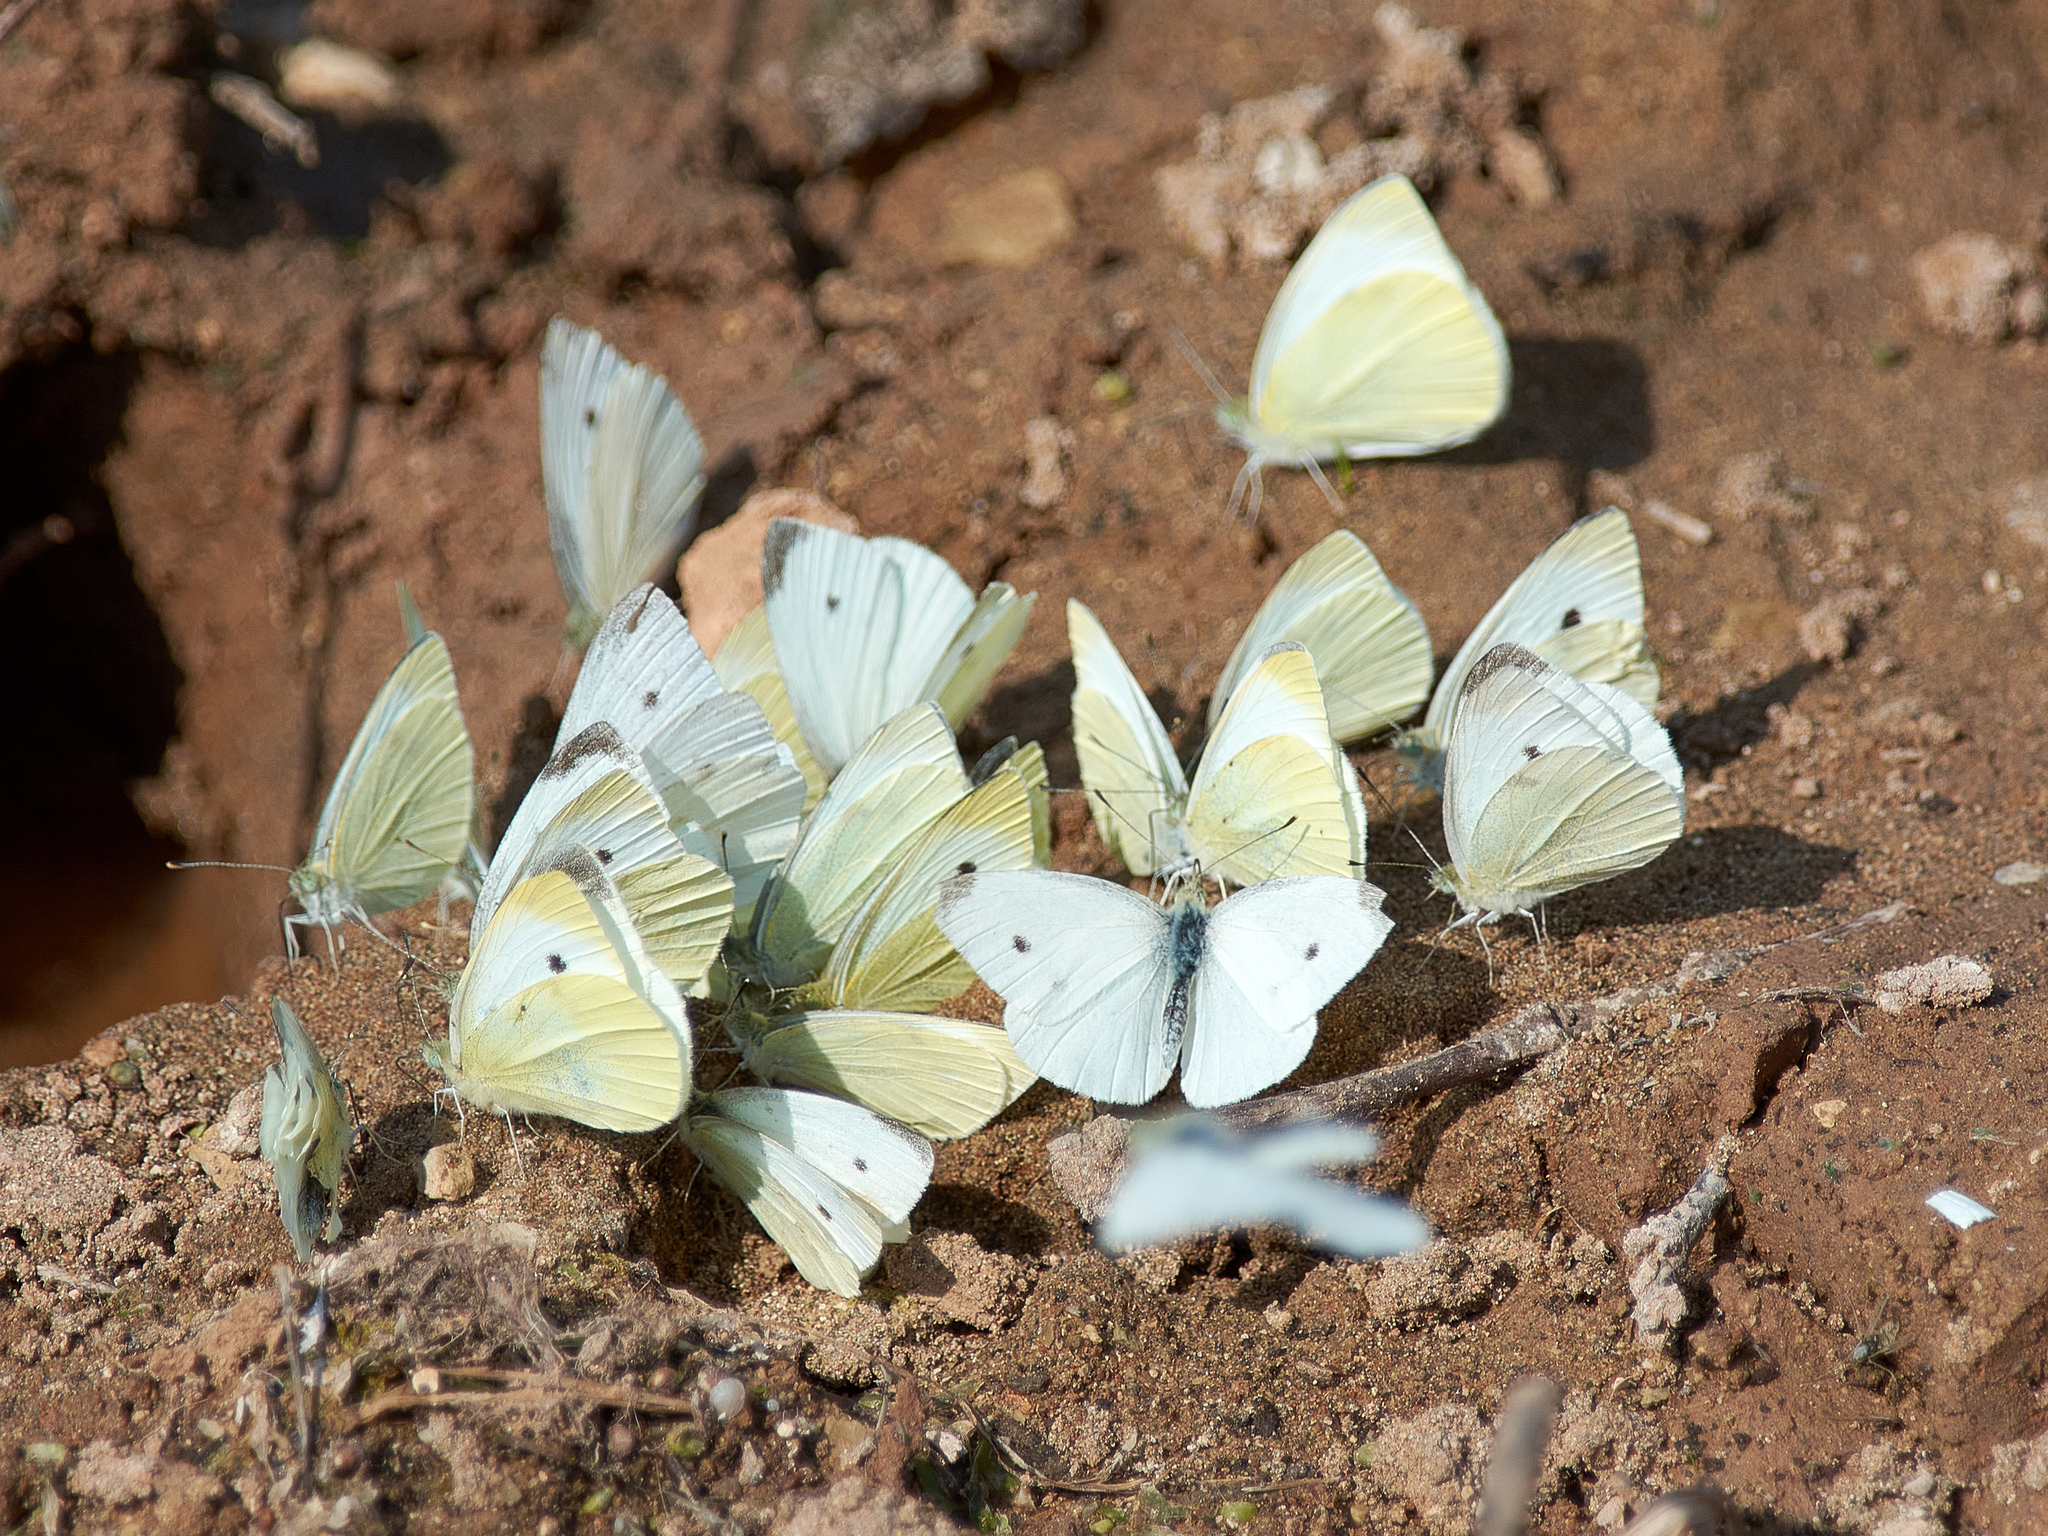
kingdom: Animalia
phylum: Arthropoda
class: Insecta
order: Lepidoptera
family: Pieridae
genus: Pieris
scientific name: Pieris rapae
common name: Small white
